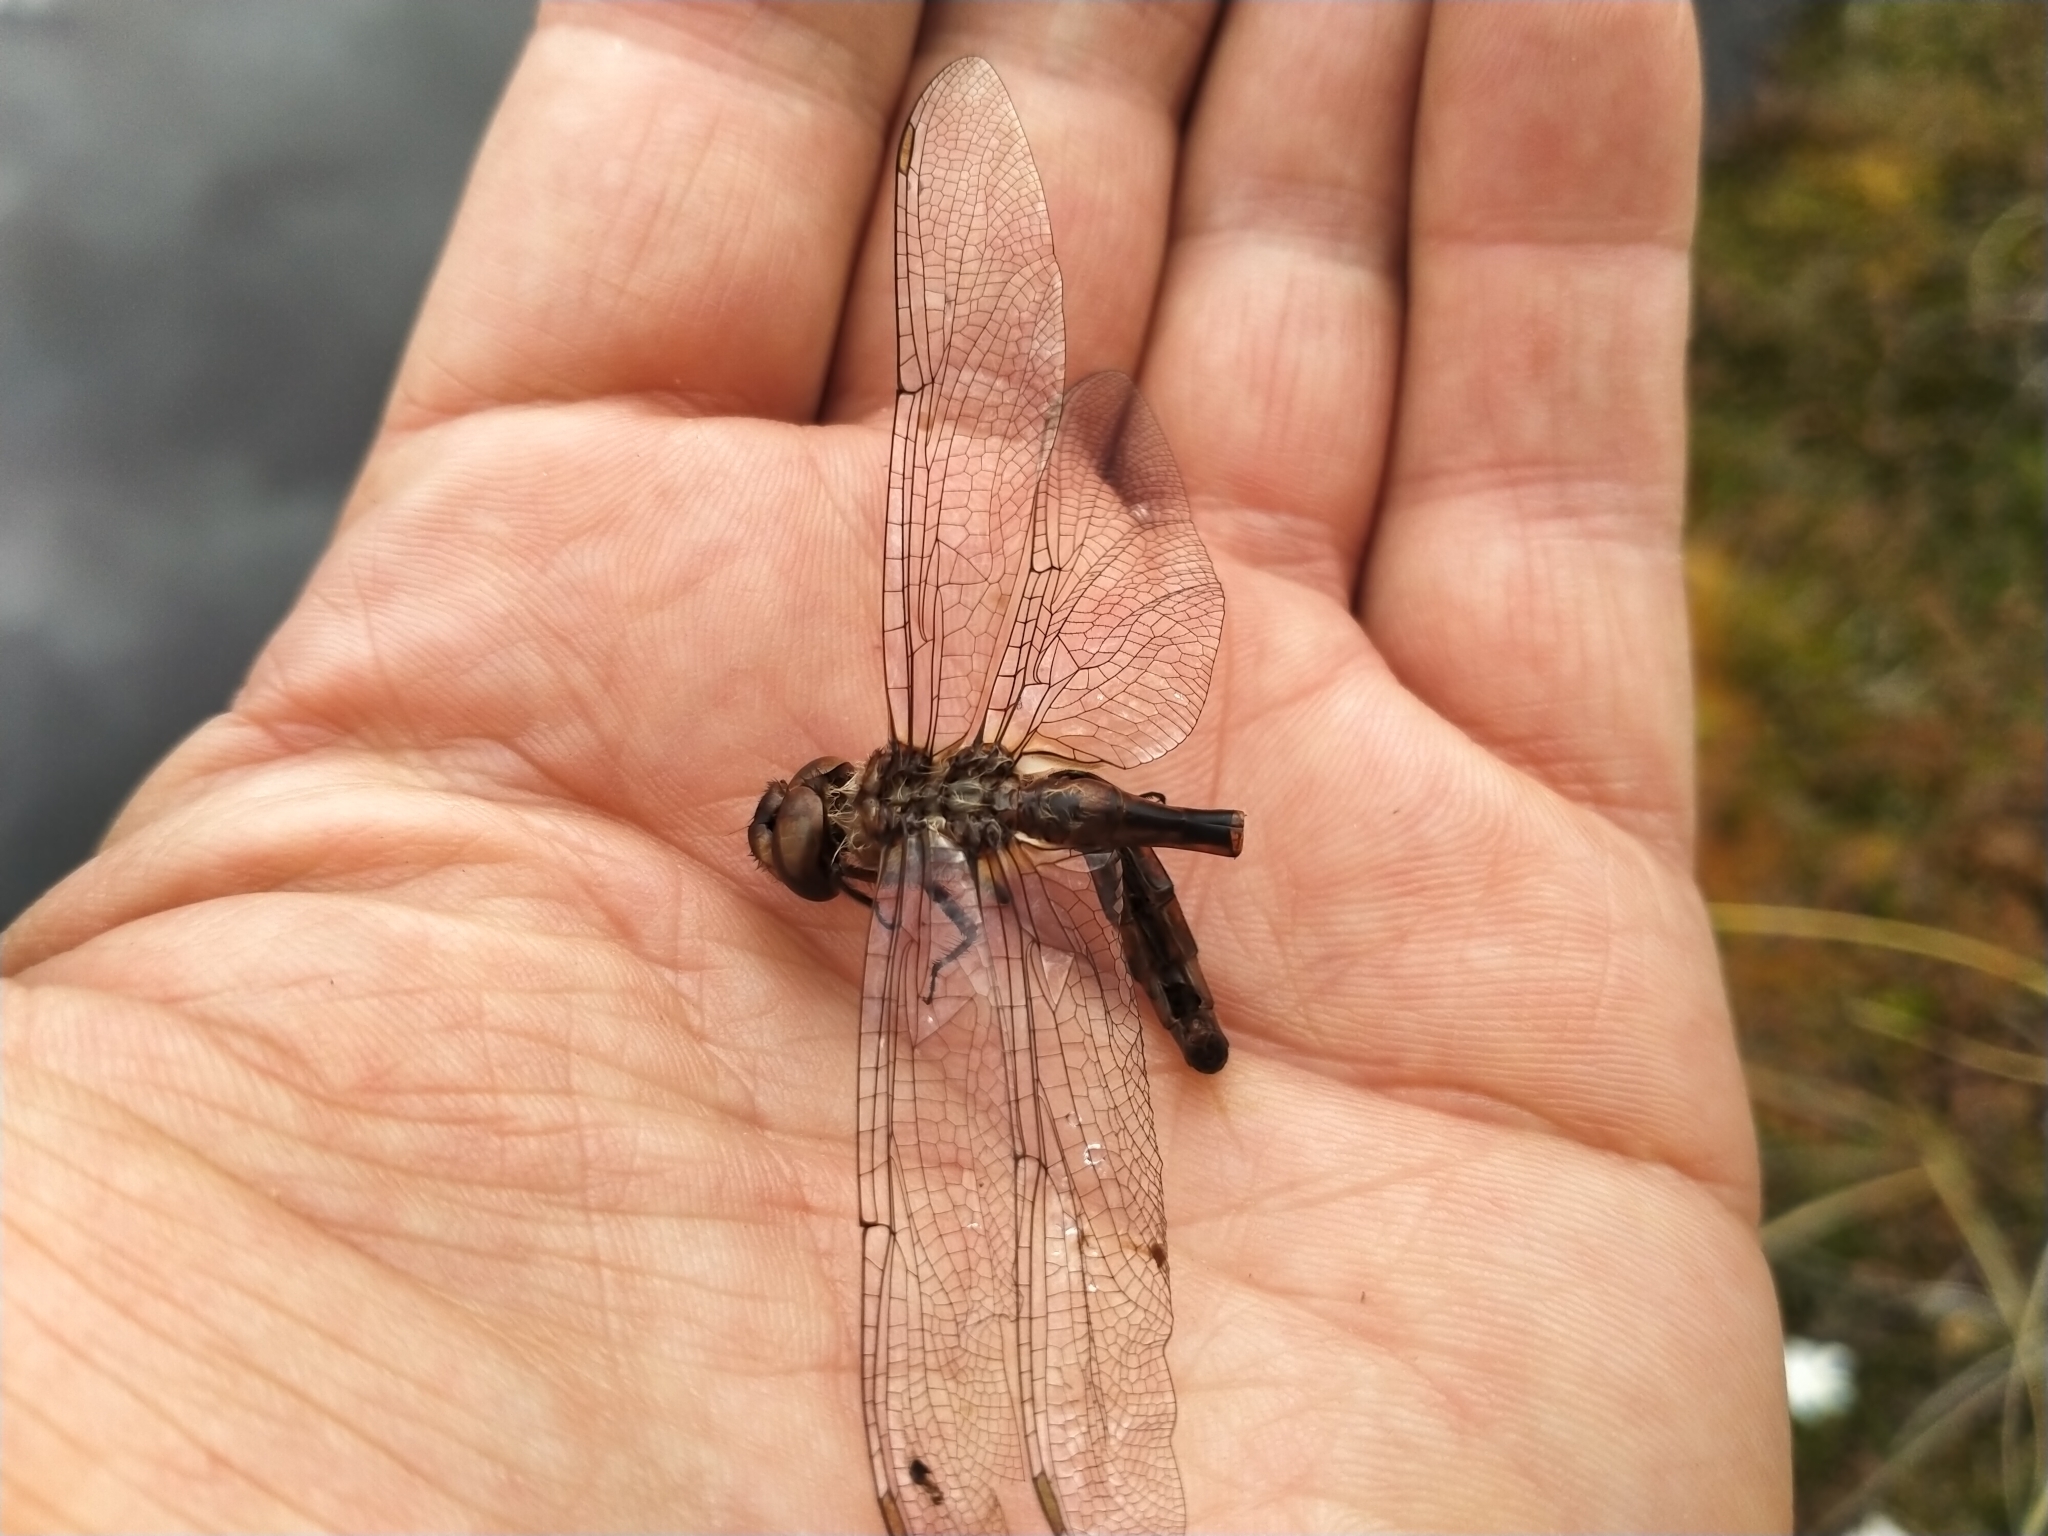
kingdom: Animalia
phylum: Arthropoda
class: Insecta
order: Odonata
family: Corduliidae
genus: Procordulia
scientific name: Procordulia smithii
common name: Ranger dragonfly
